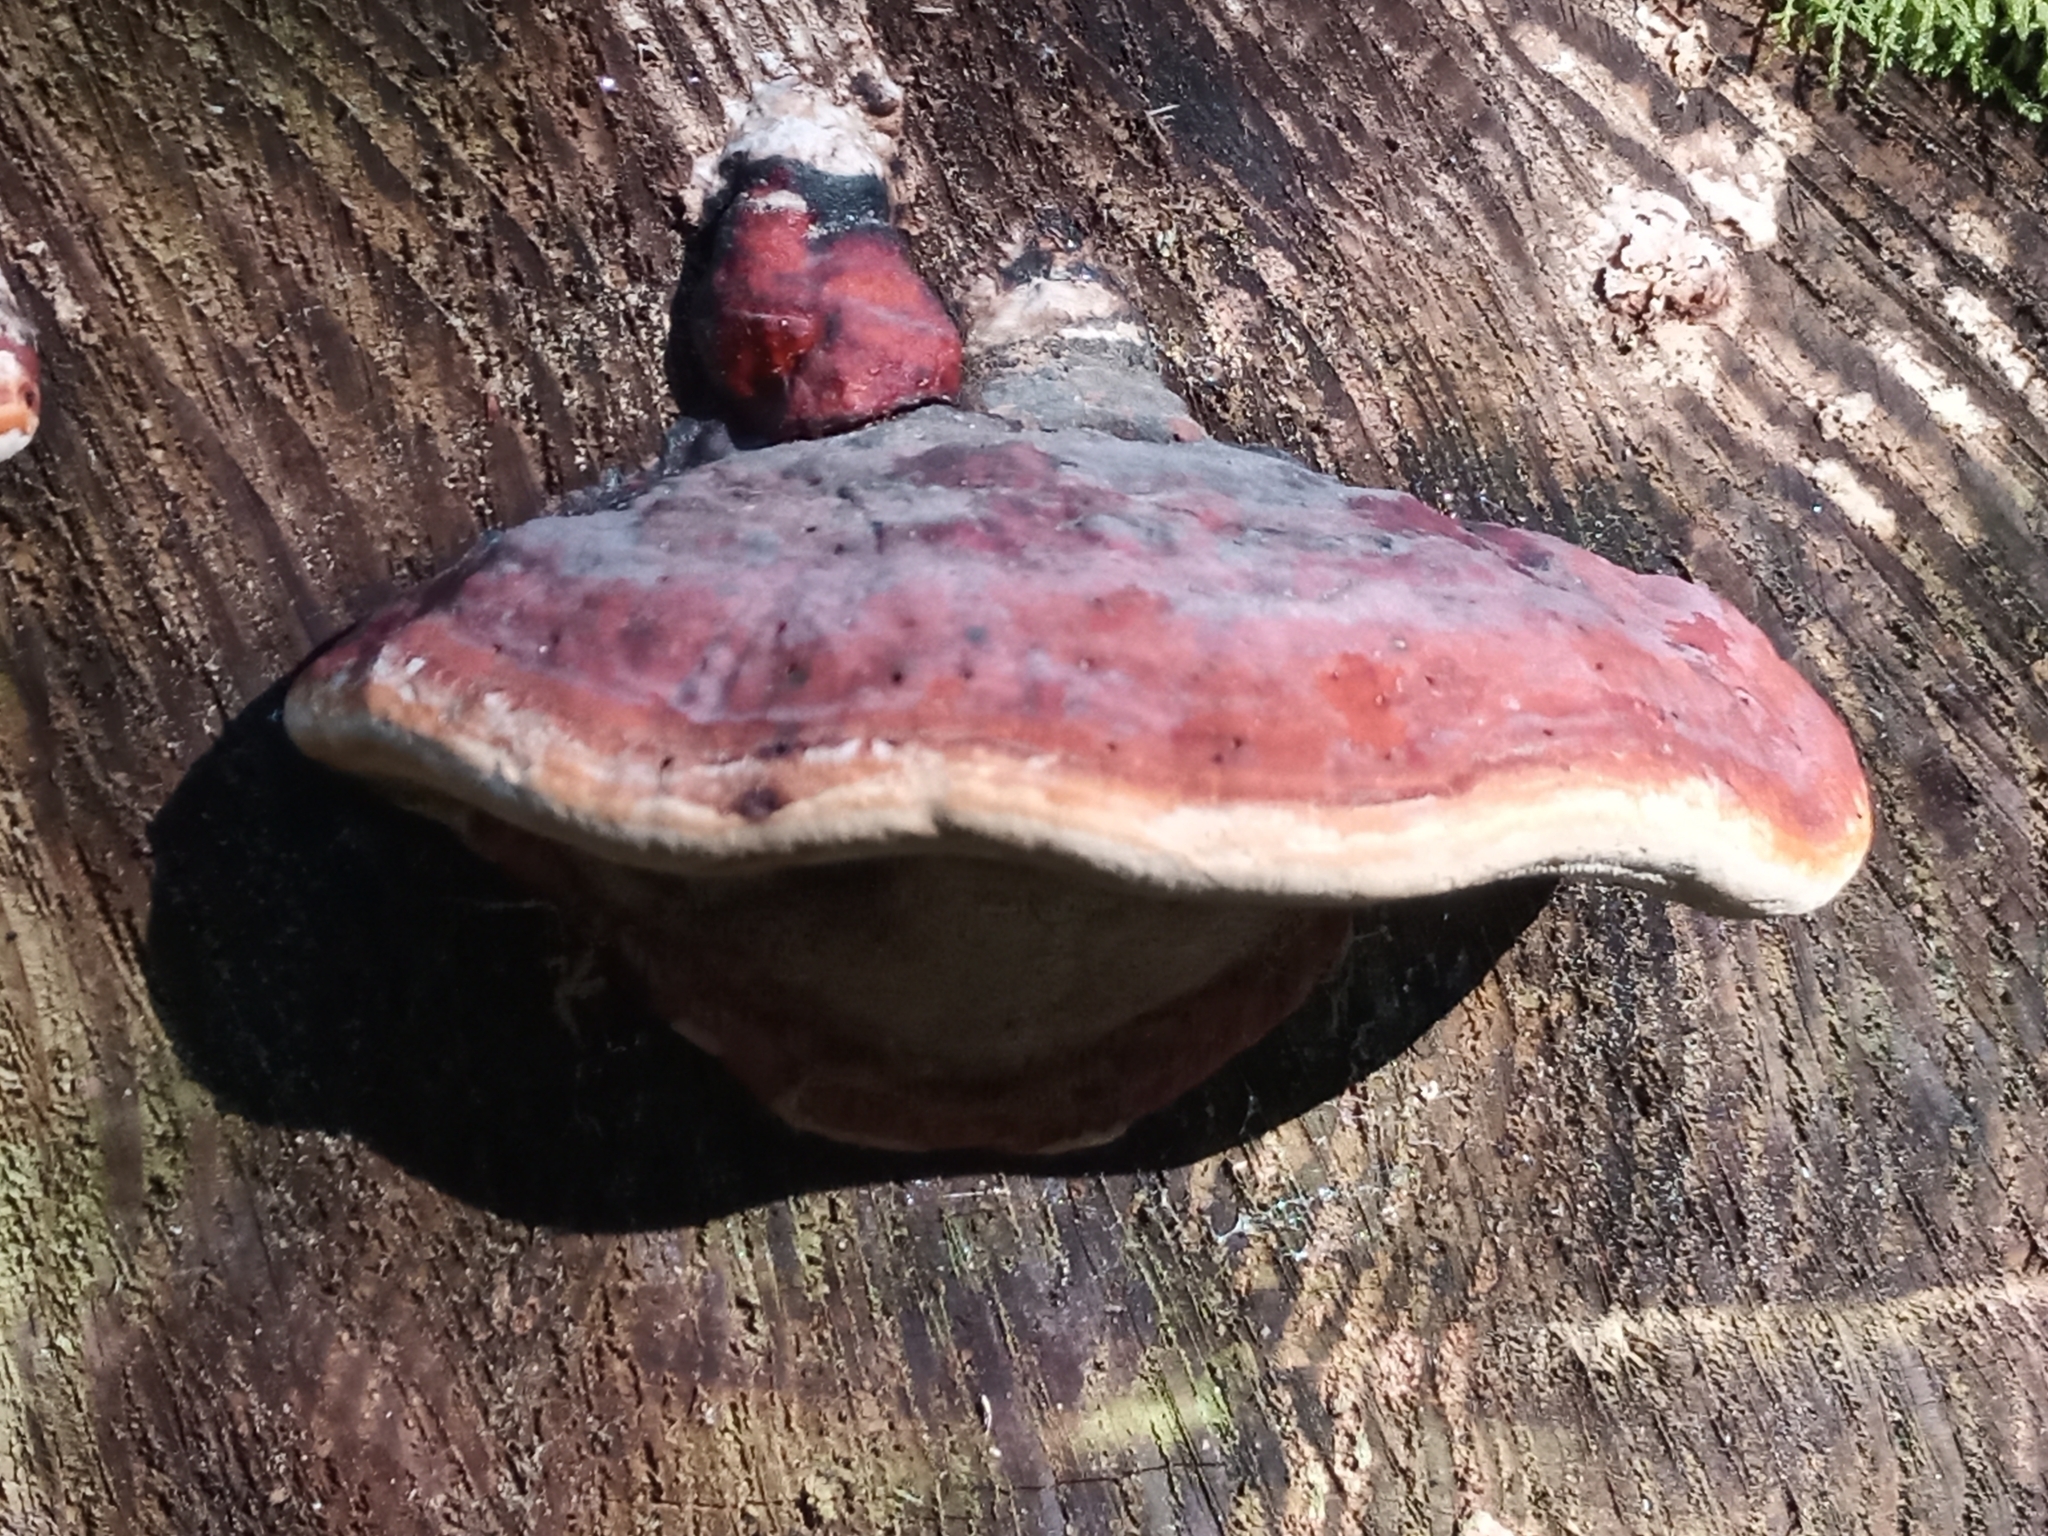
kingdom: Fungi
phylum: Basidiomycota
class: Agaricomycetes
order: Polyporales
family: Fomitopsidaceae
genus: Fomitopsis
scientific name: Fomitopsis pinicola
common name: Red-belted bracket
